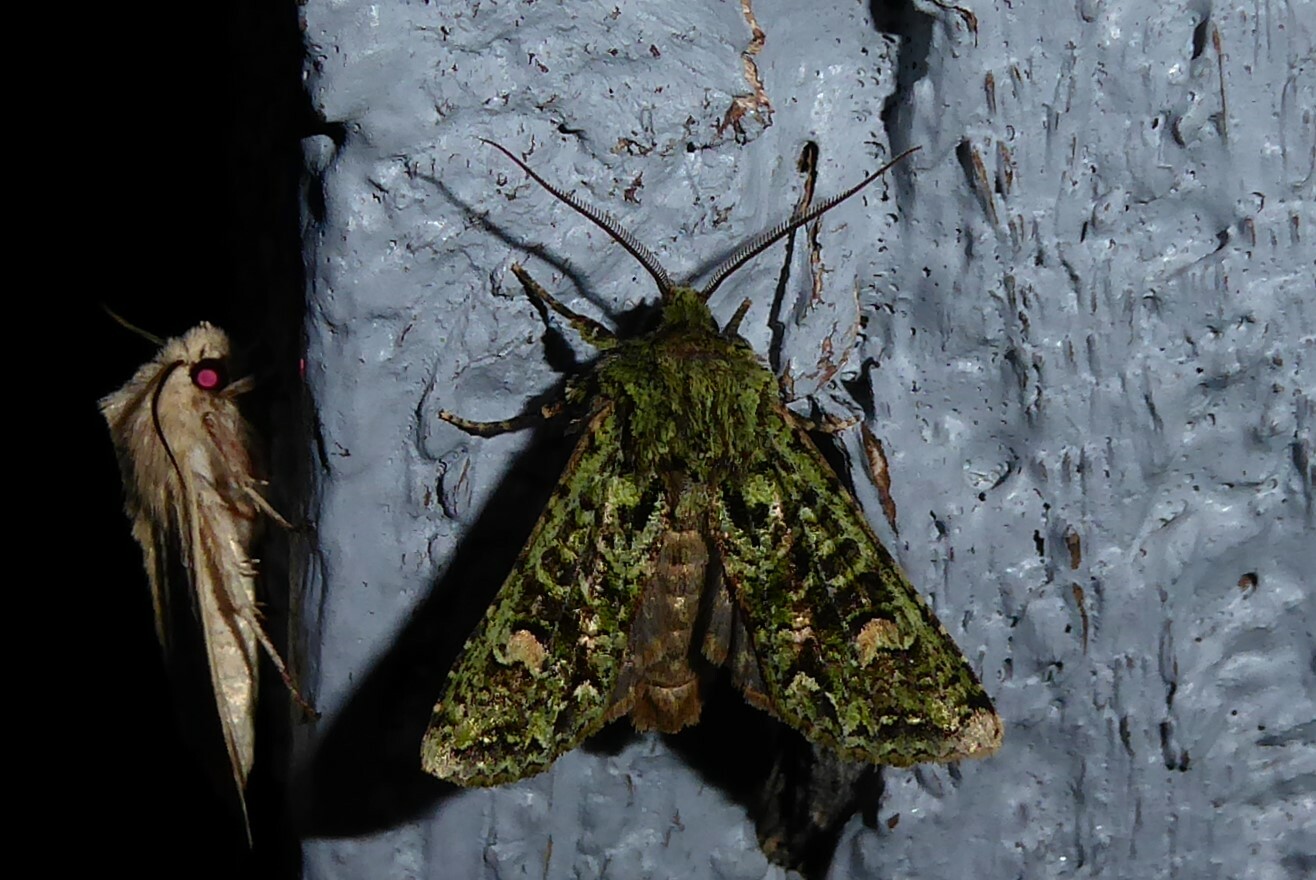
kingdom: Animalia
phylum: Arthropoda
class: Insecta
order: Lepidoptera
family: Noctuidae
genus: Ichneutica
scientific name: Ichneutica
